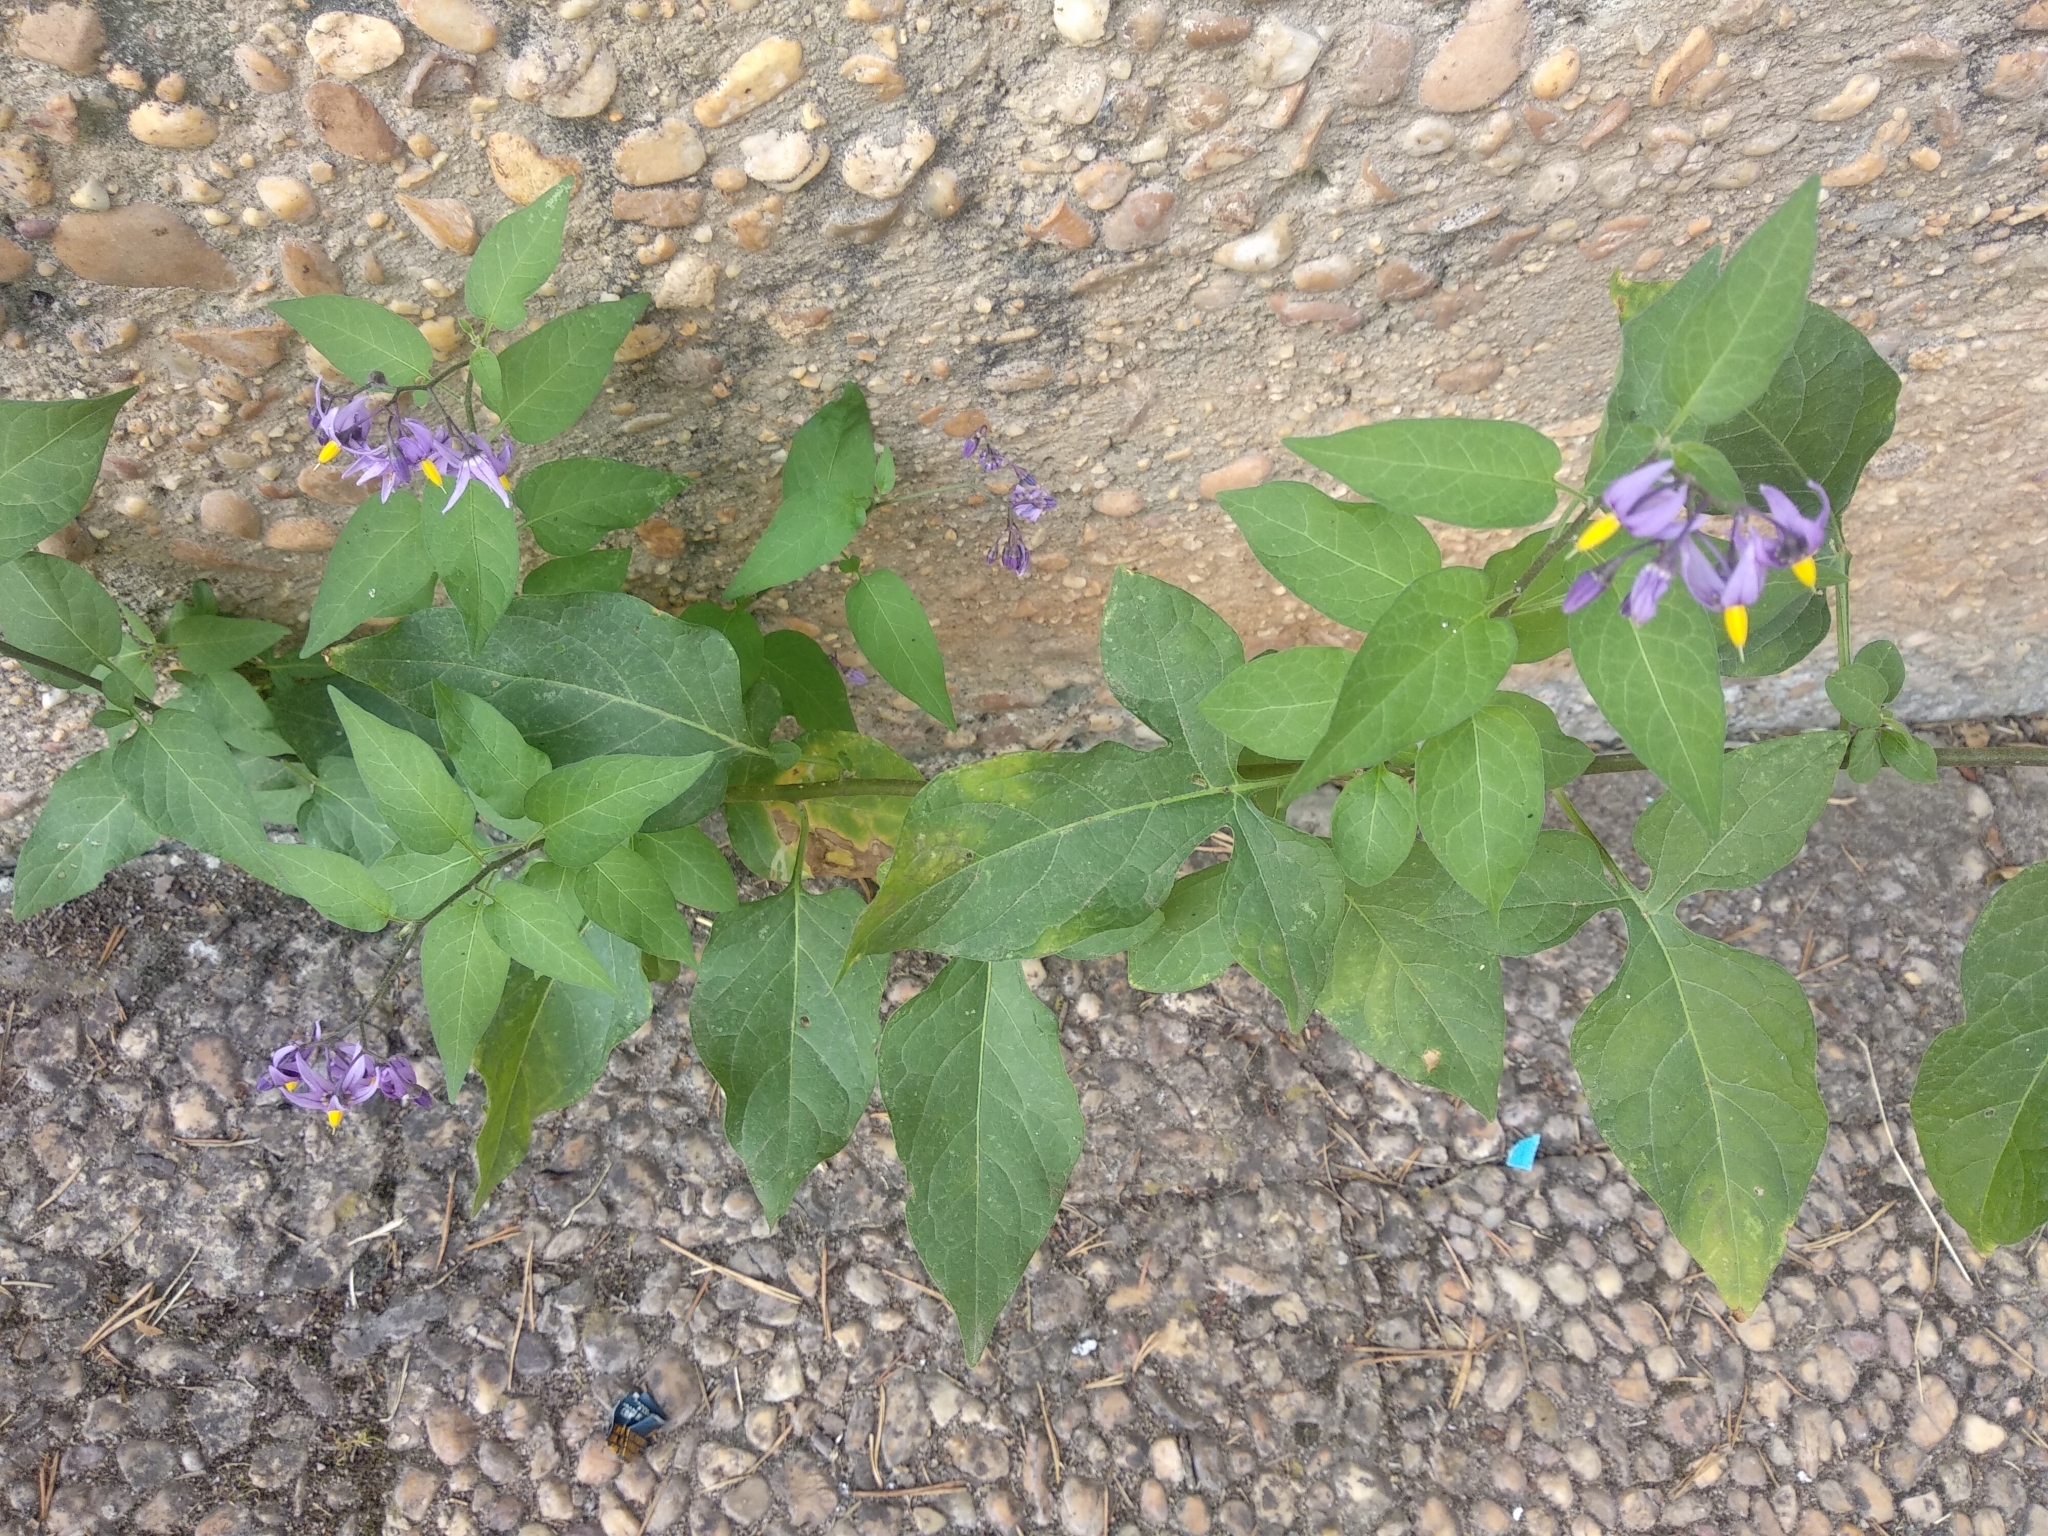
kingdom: Plantae
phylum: Tracheophyta
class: Magnoliopsida
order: Solanales
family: Solanaceae
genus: Solanum
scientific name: Solanum dulcamara
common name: Climbing nightshade
